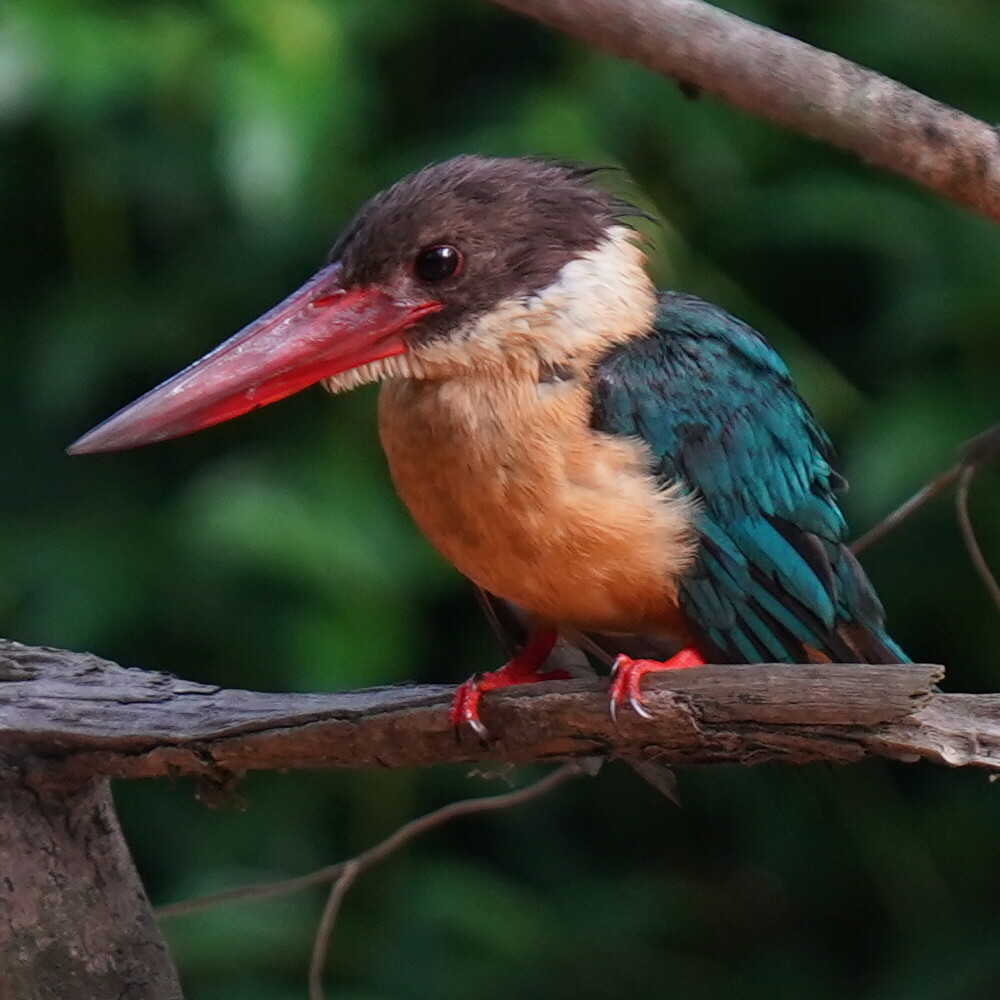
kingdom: Animalia
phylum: Chordata
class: Aves
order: Coraciiformes
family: Alcedinidae
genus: Pelargopsis
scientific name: Pelargopsis capensis
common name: Stork-billed kingfisher
